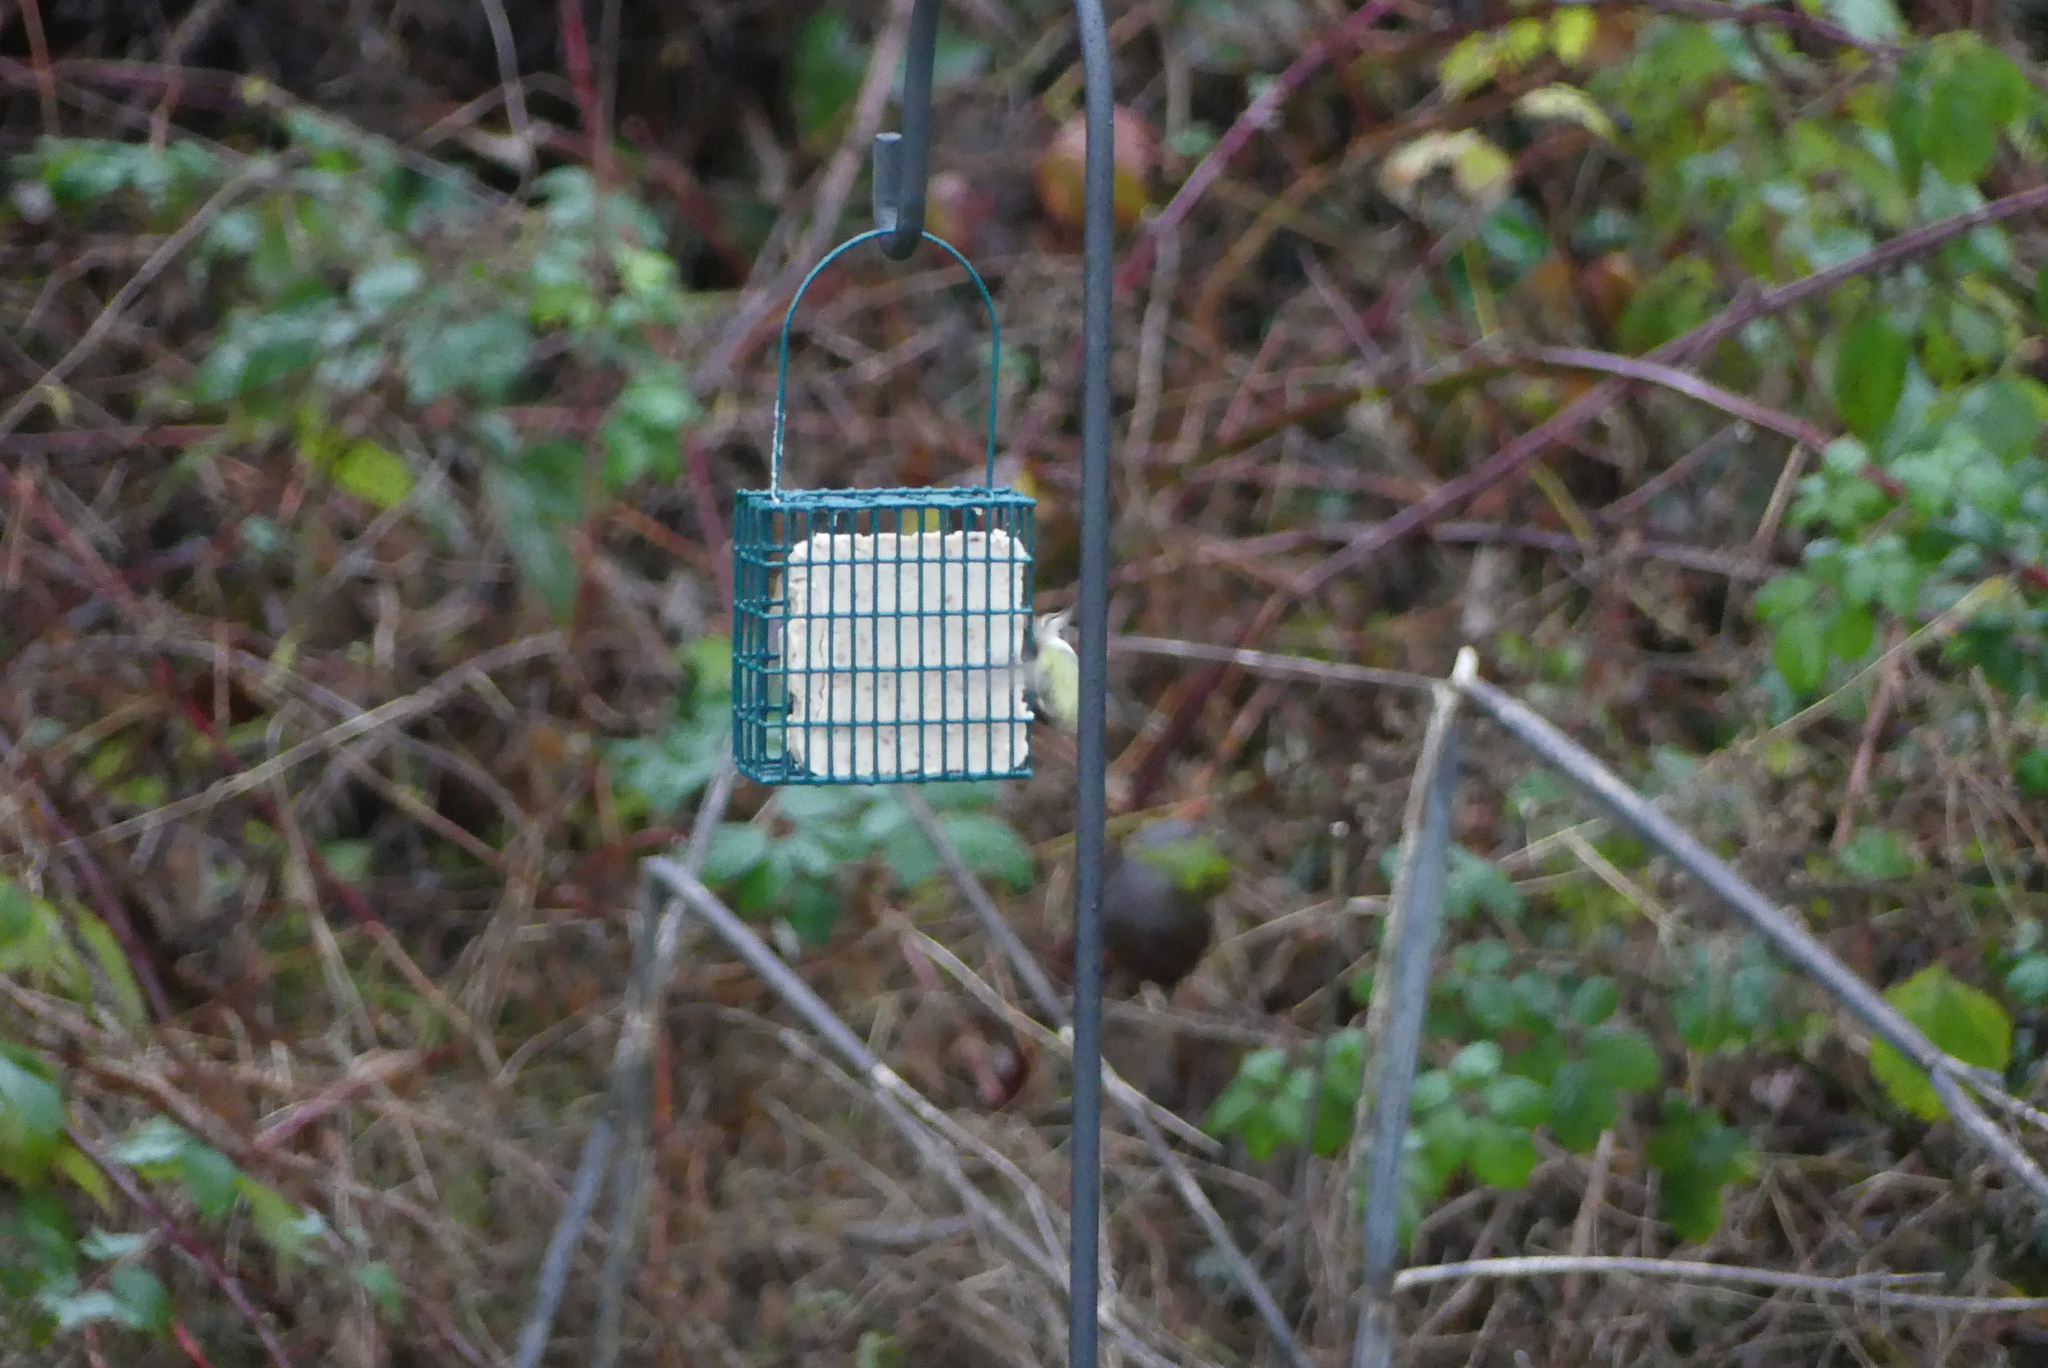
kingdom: Animalia
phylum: Chordata
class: Aves
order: Apodiformes
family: Trochilidae
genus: Calypte
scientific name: Calypte anna
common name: Anna's hummingbird
